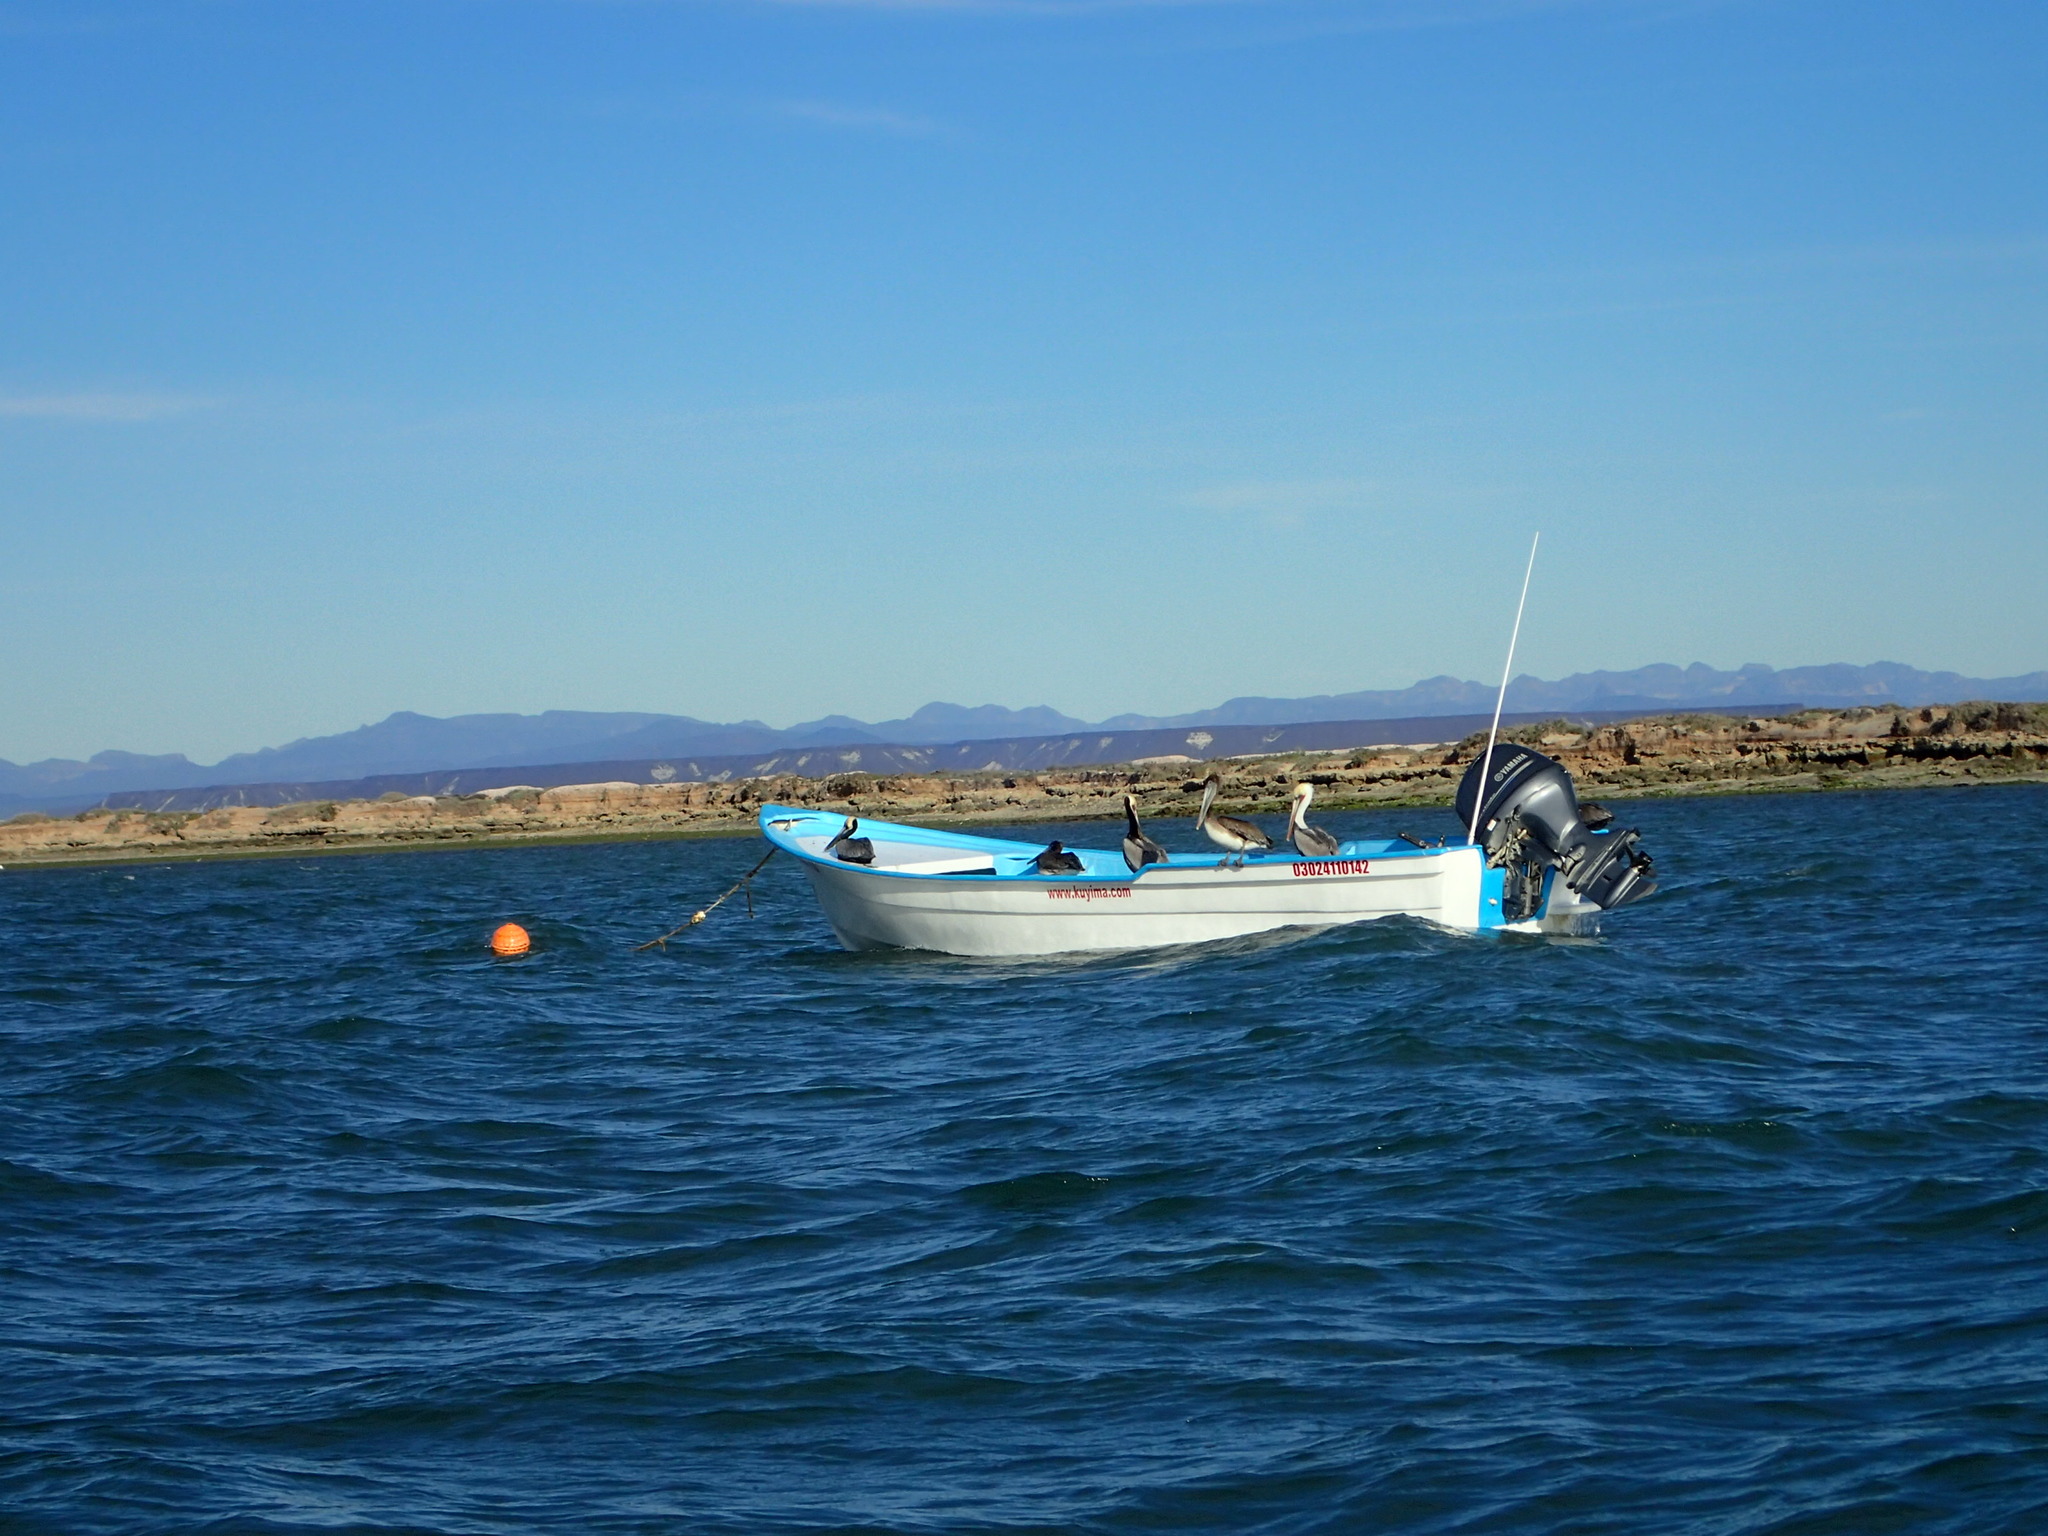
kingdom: Animalia
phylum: Chordata
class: Aves
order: Pelecaniformes
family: Pelecanidae
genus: Pelecanus
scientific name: Pelecanus occidentalis
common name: Brown pelican
